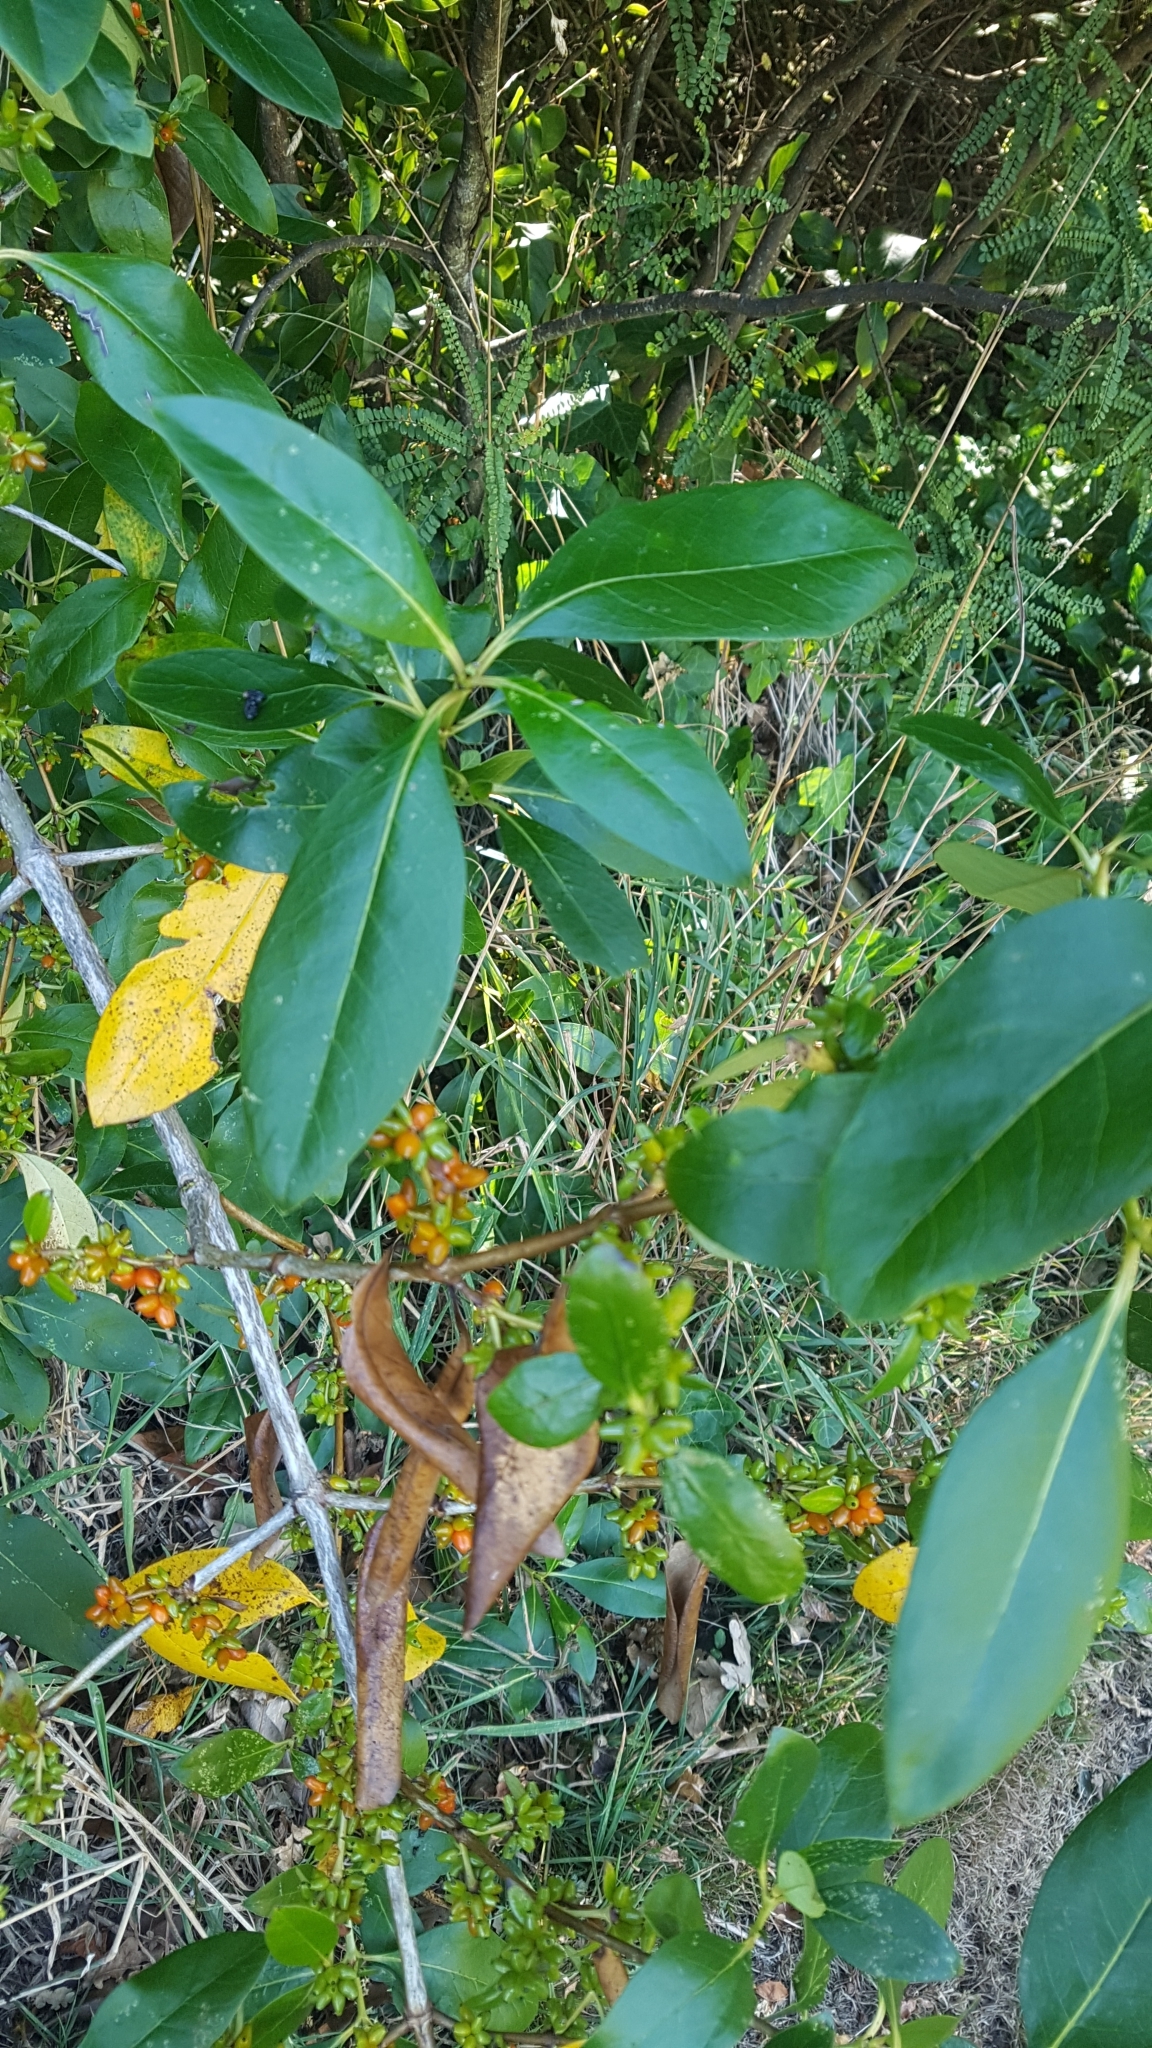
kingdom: Plantae
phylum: Tracheophyta
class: Magnoliopsida
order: Gentianales
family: Rubiaceae
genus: Coprosma
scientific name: Coprosma robusta
